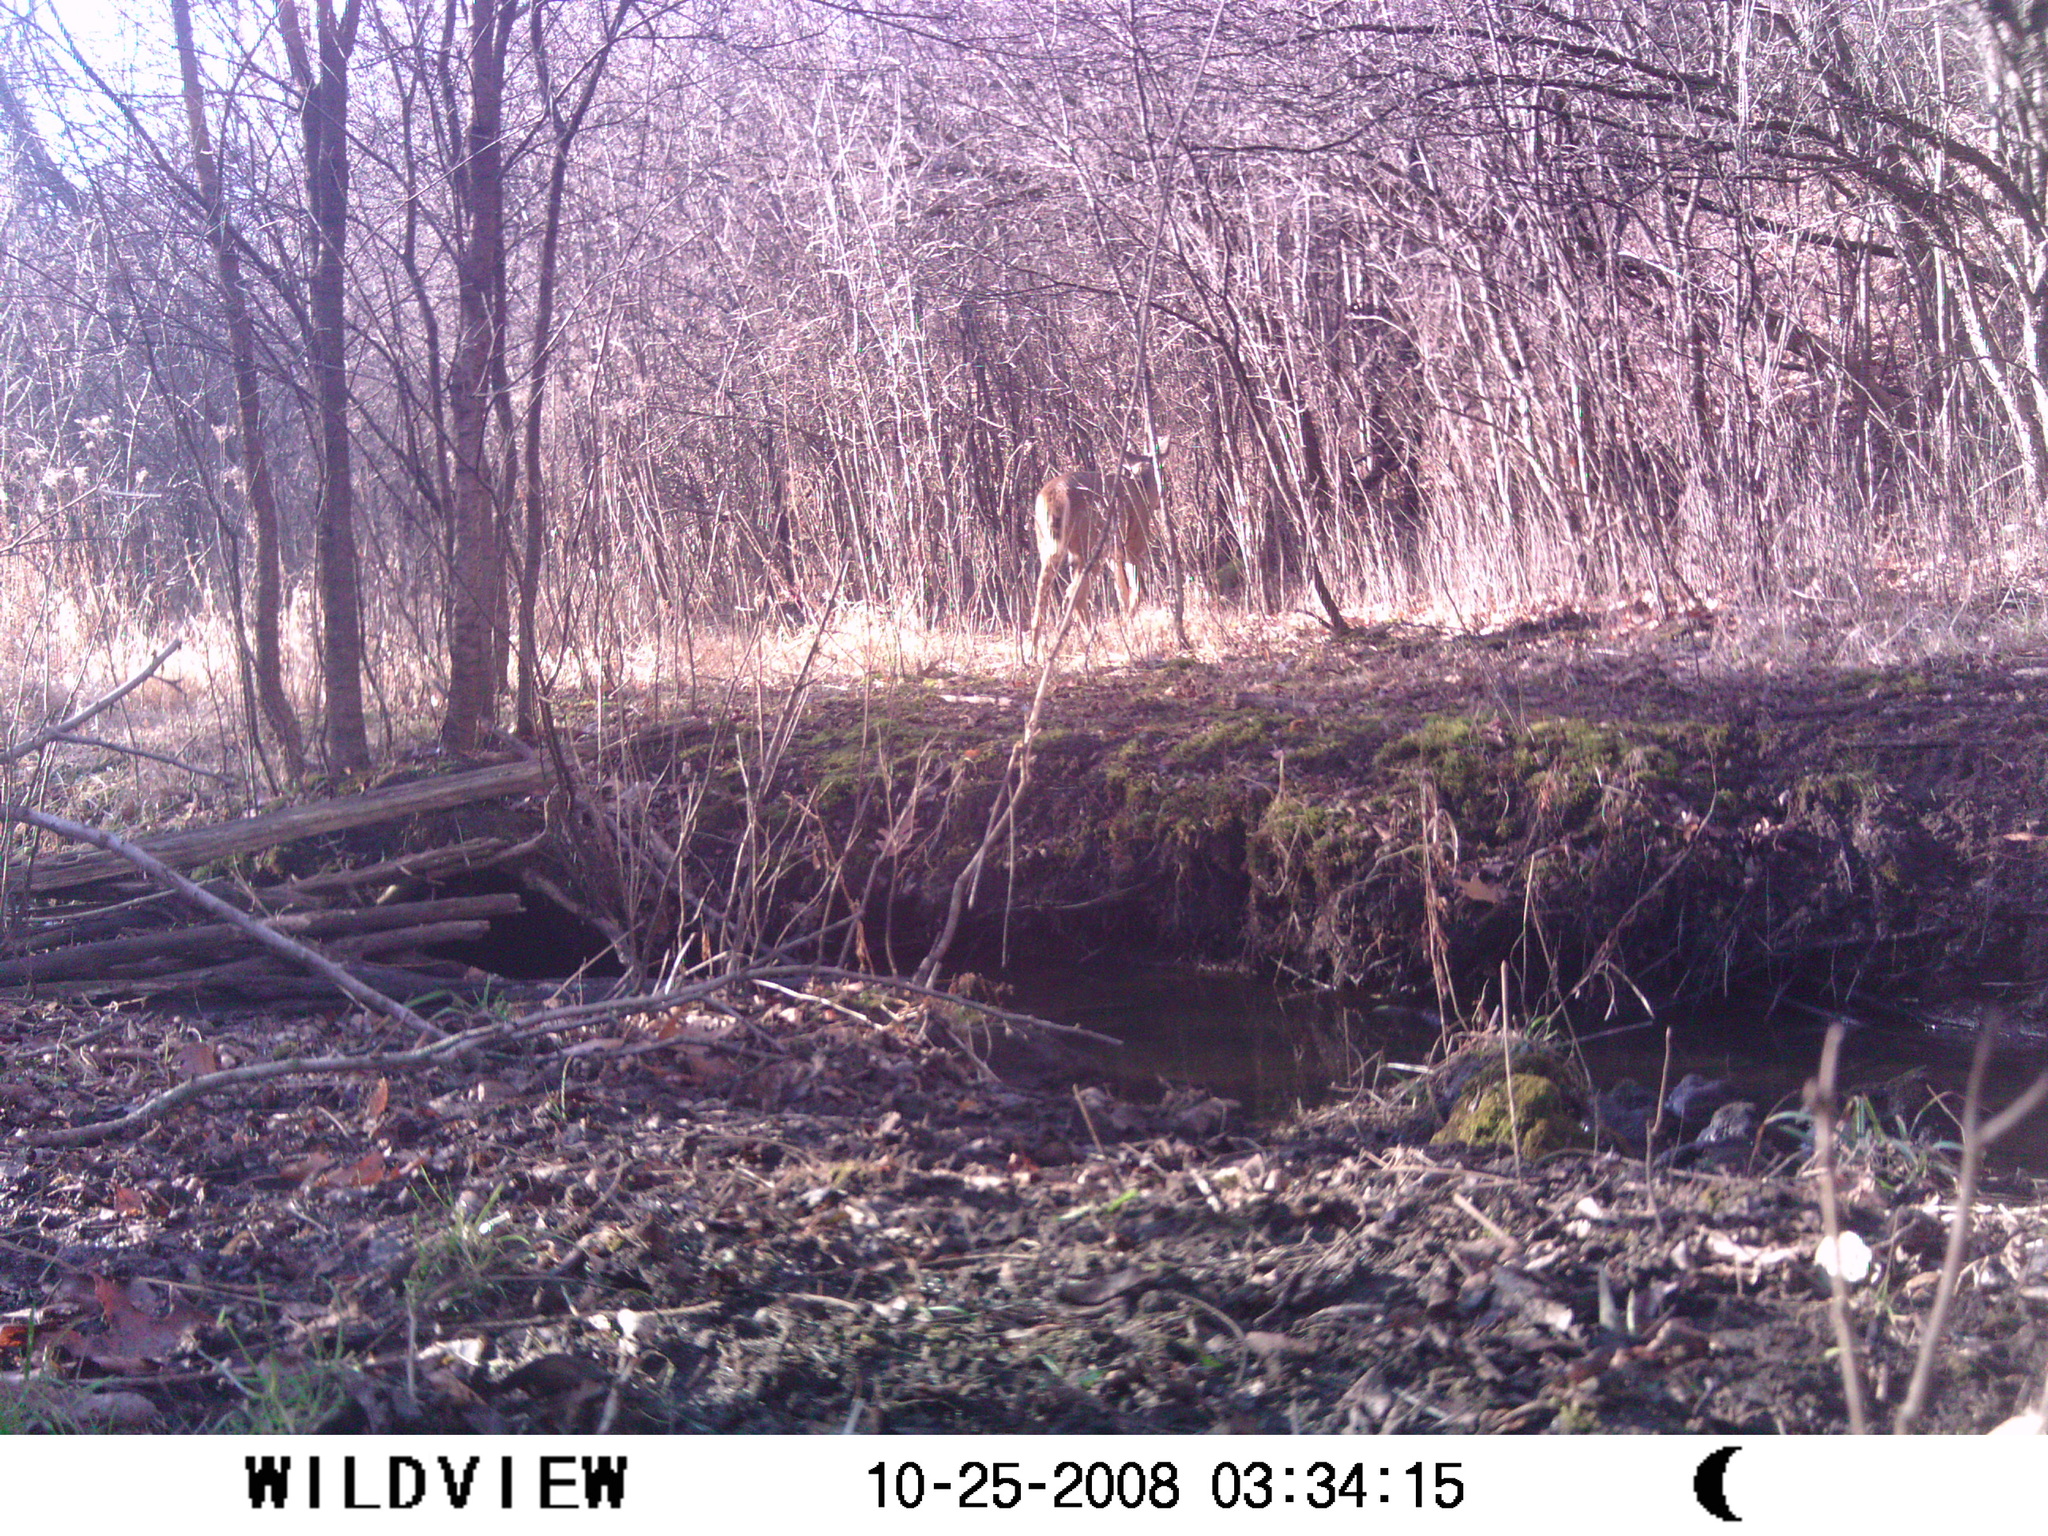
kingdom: Animalia
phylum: Chordata
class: Mammalia
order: Artiodactyla
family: Cervidae
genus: Odocoileus
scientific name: Odocoileus virginianus
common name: White-tailed deer
